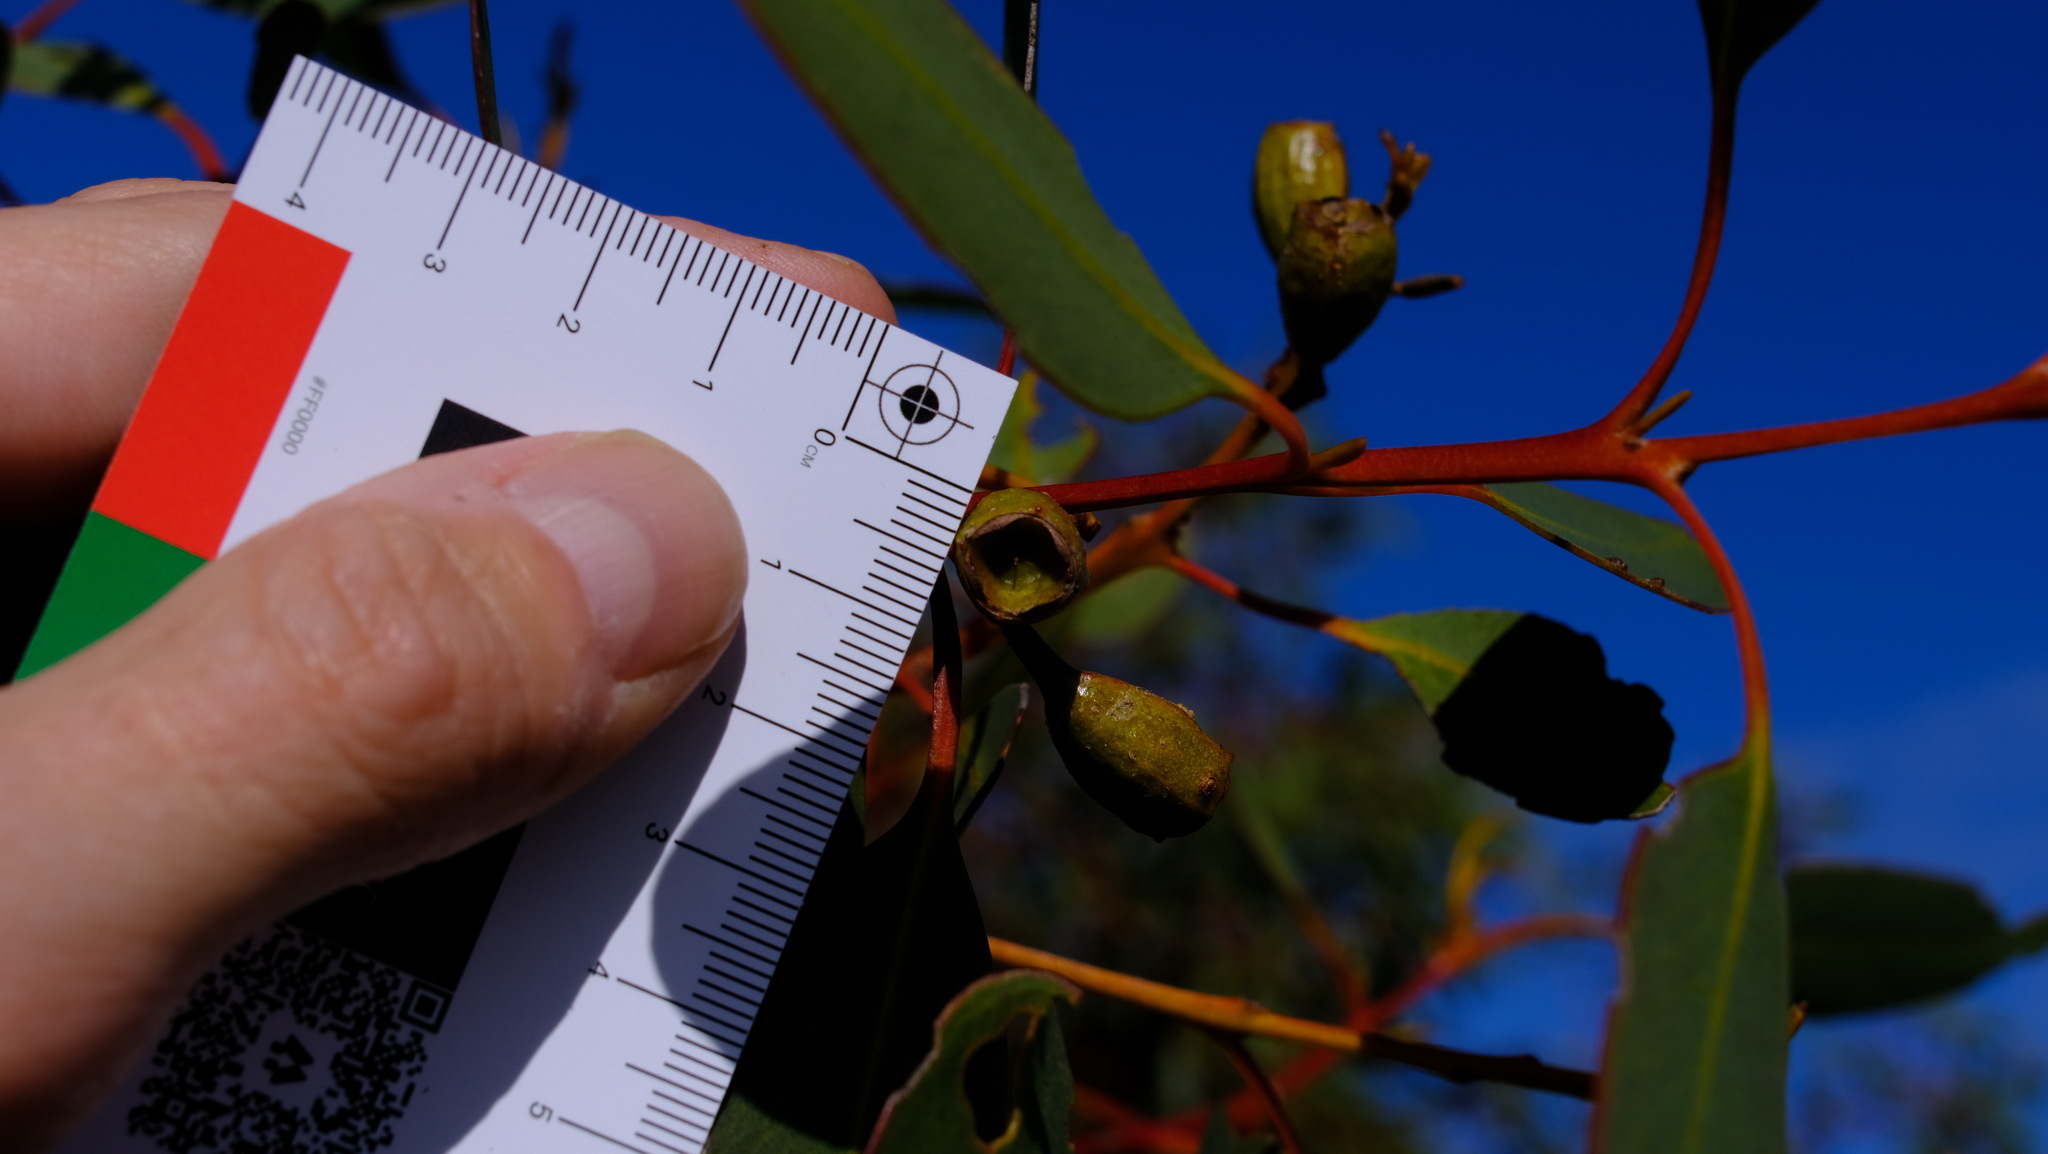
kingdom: Plantae
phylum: Tracheophyta
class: Magnoliopsida
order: Myrtales
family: Myrtaceae
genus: Eucalyptus
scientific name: Eucalyptus gittinsii
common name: Northern sandplain mallee
